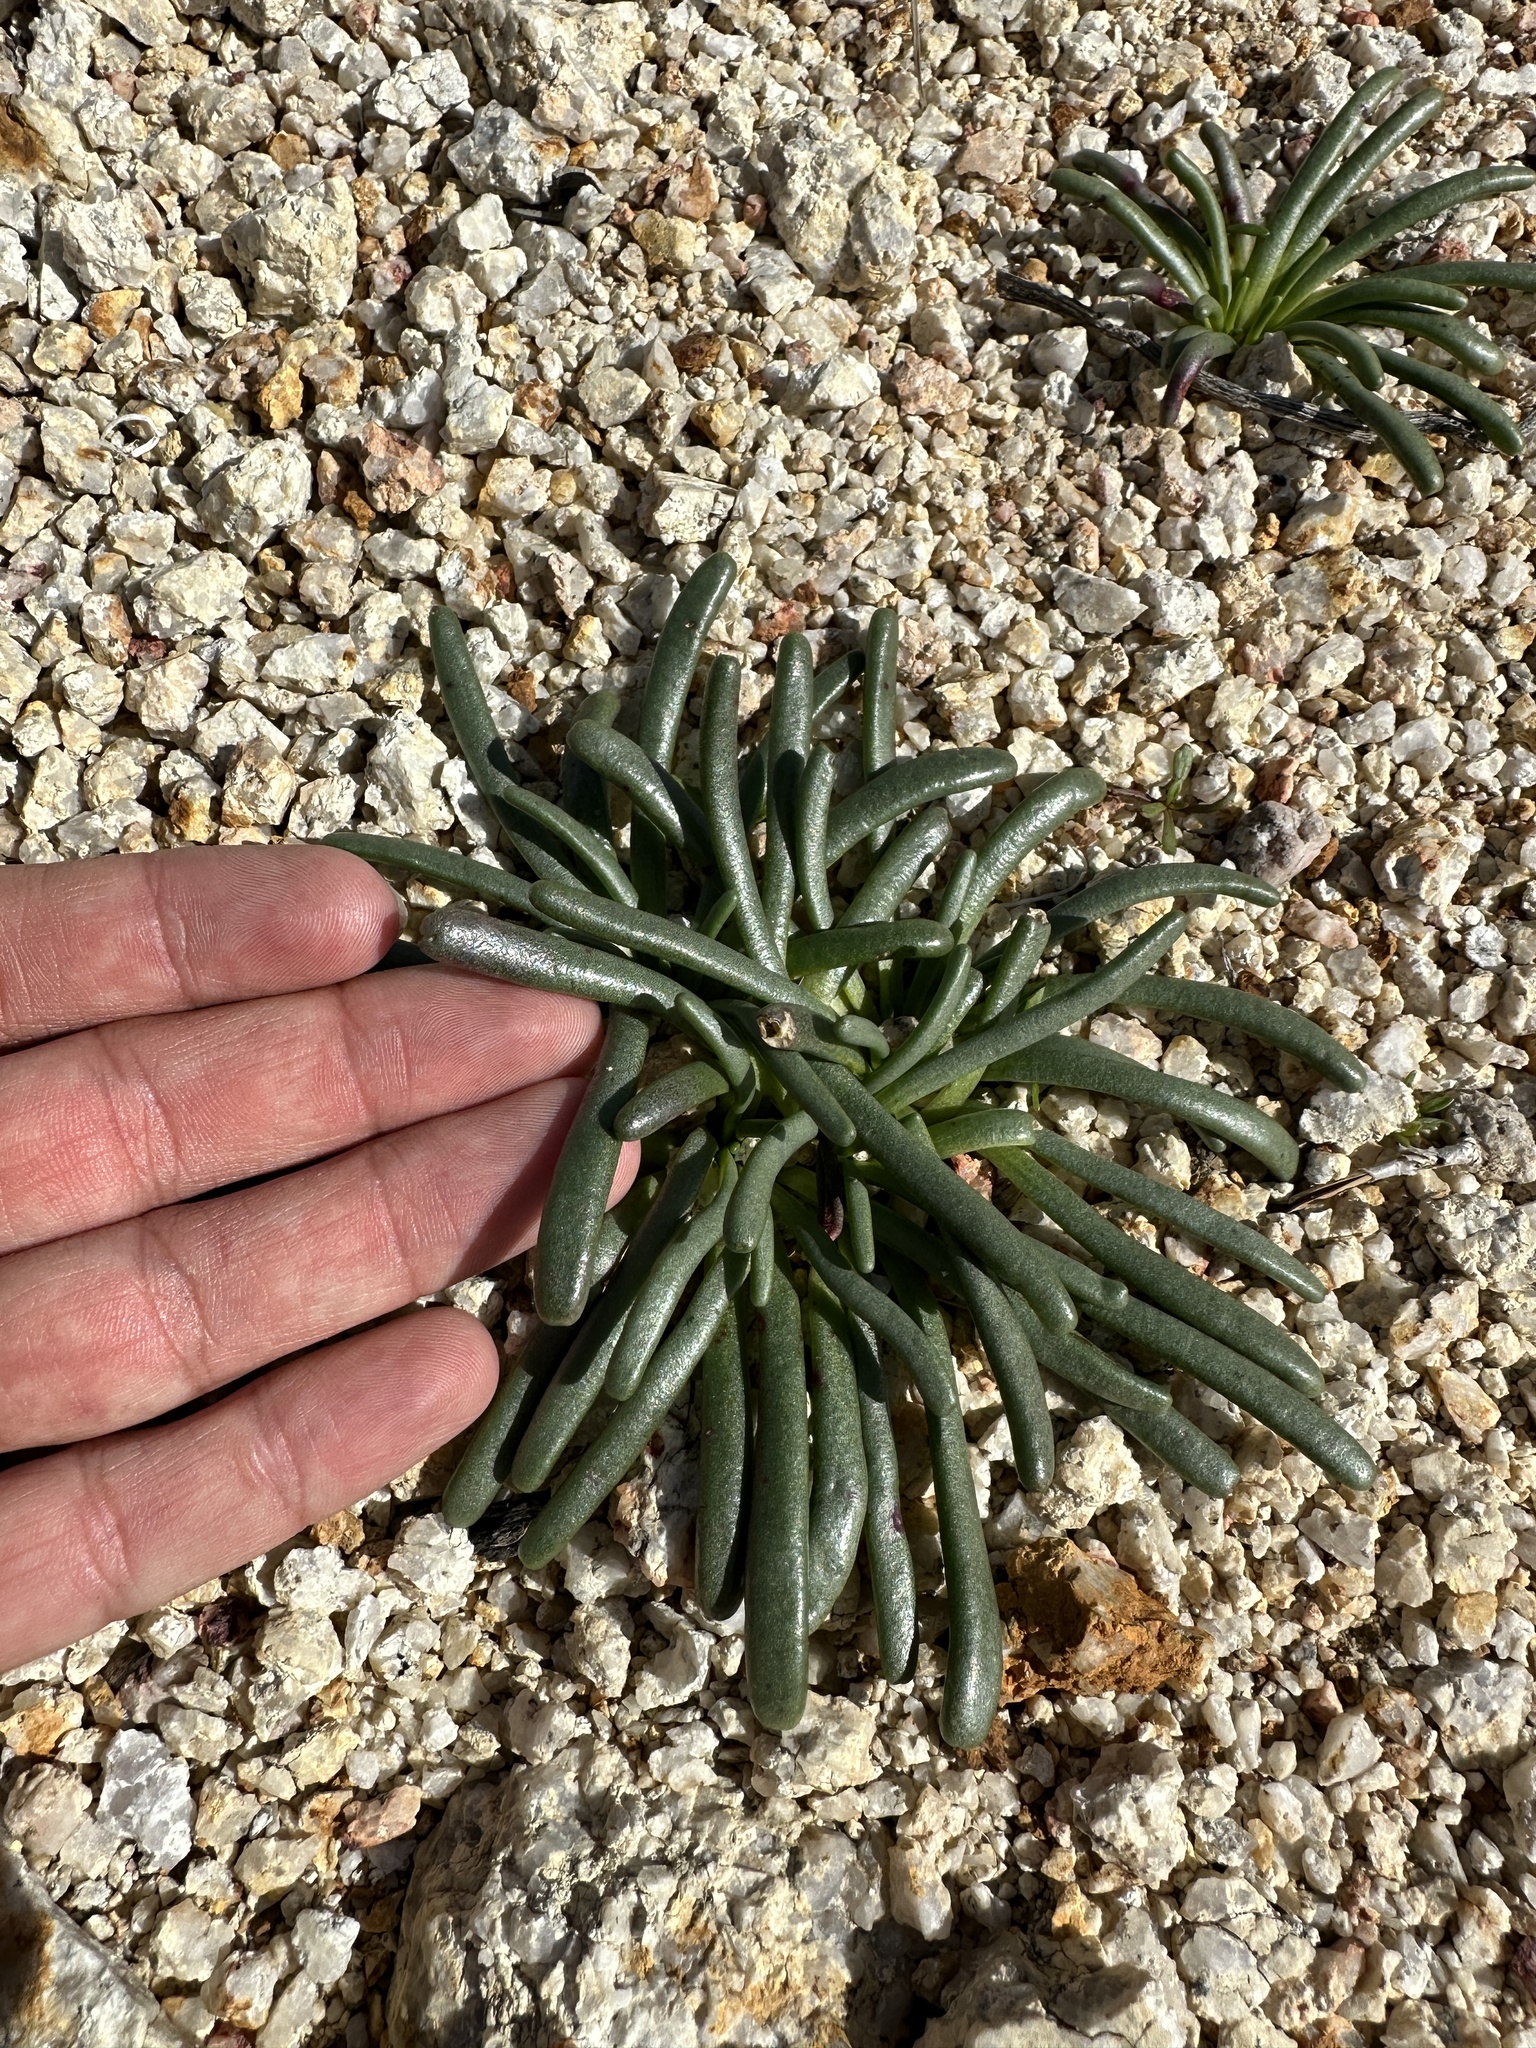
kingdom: Plantae
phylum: Tracheophyta
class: Magnoliopsida
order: Caryophyllales
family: Montiaceae
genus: Lewisia
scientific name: Lewisia rediviva
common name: Bitter-root
